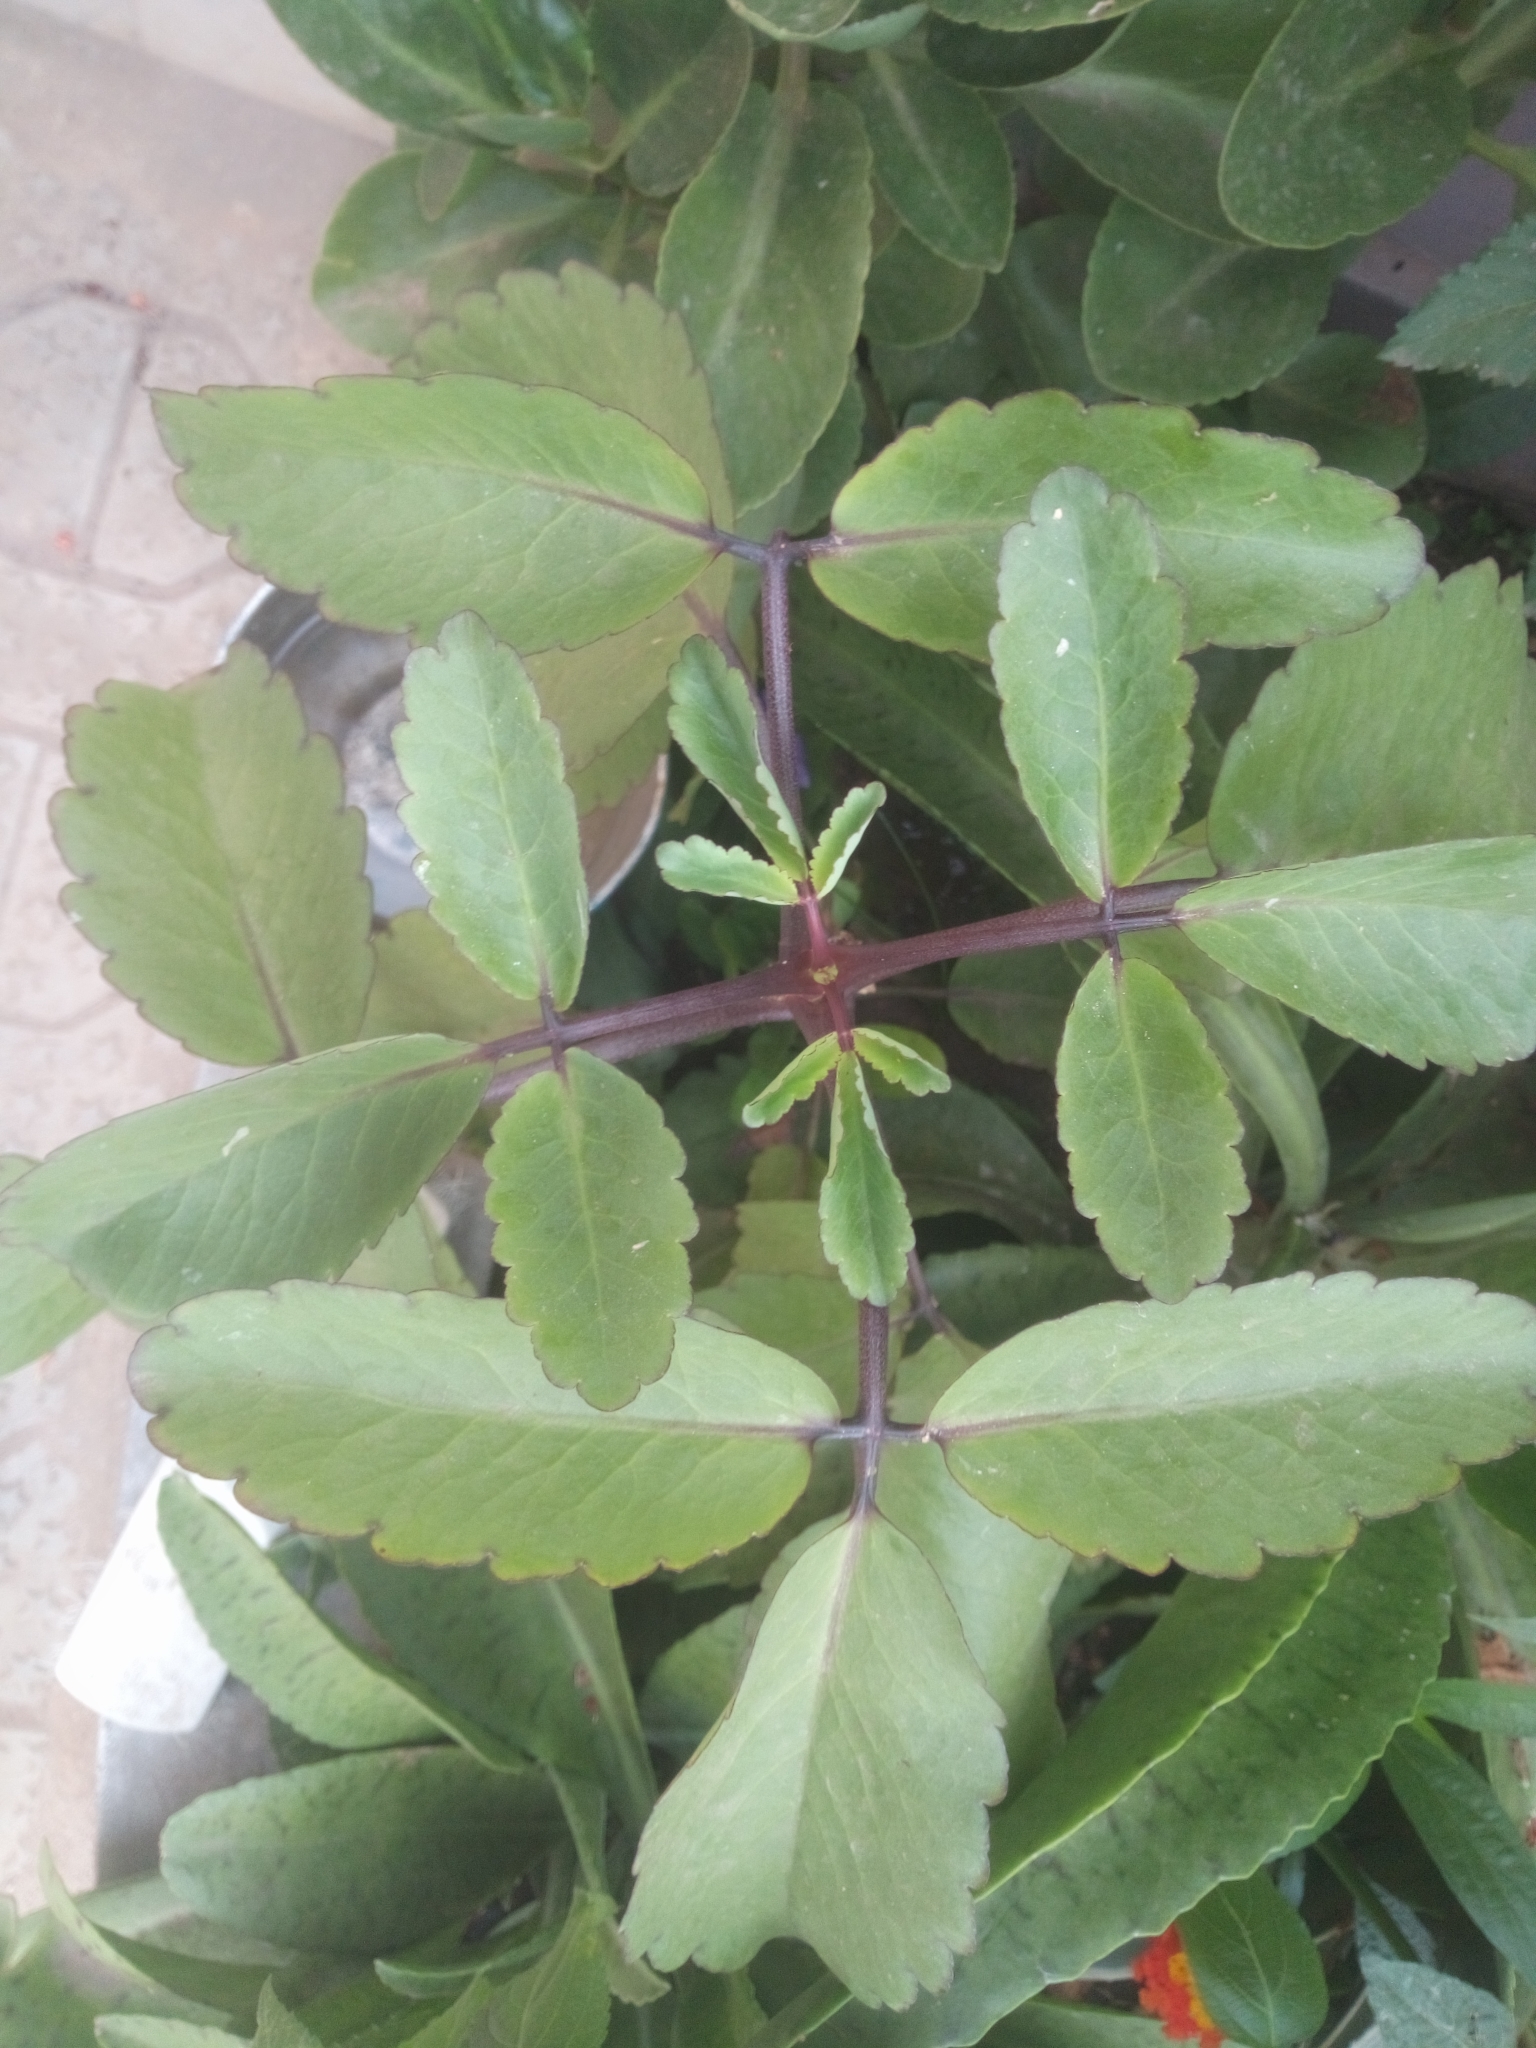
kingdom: Plantae
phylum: Tracheophyta
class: Magnoliopsida
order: Saxifragales
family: Crassulaceae
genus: Kalanchoe
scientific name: Kalanchoe pinnata
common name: Cathedral bells
